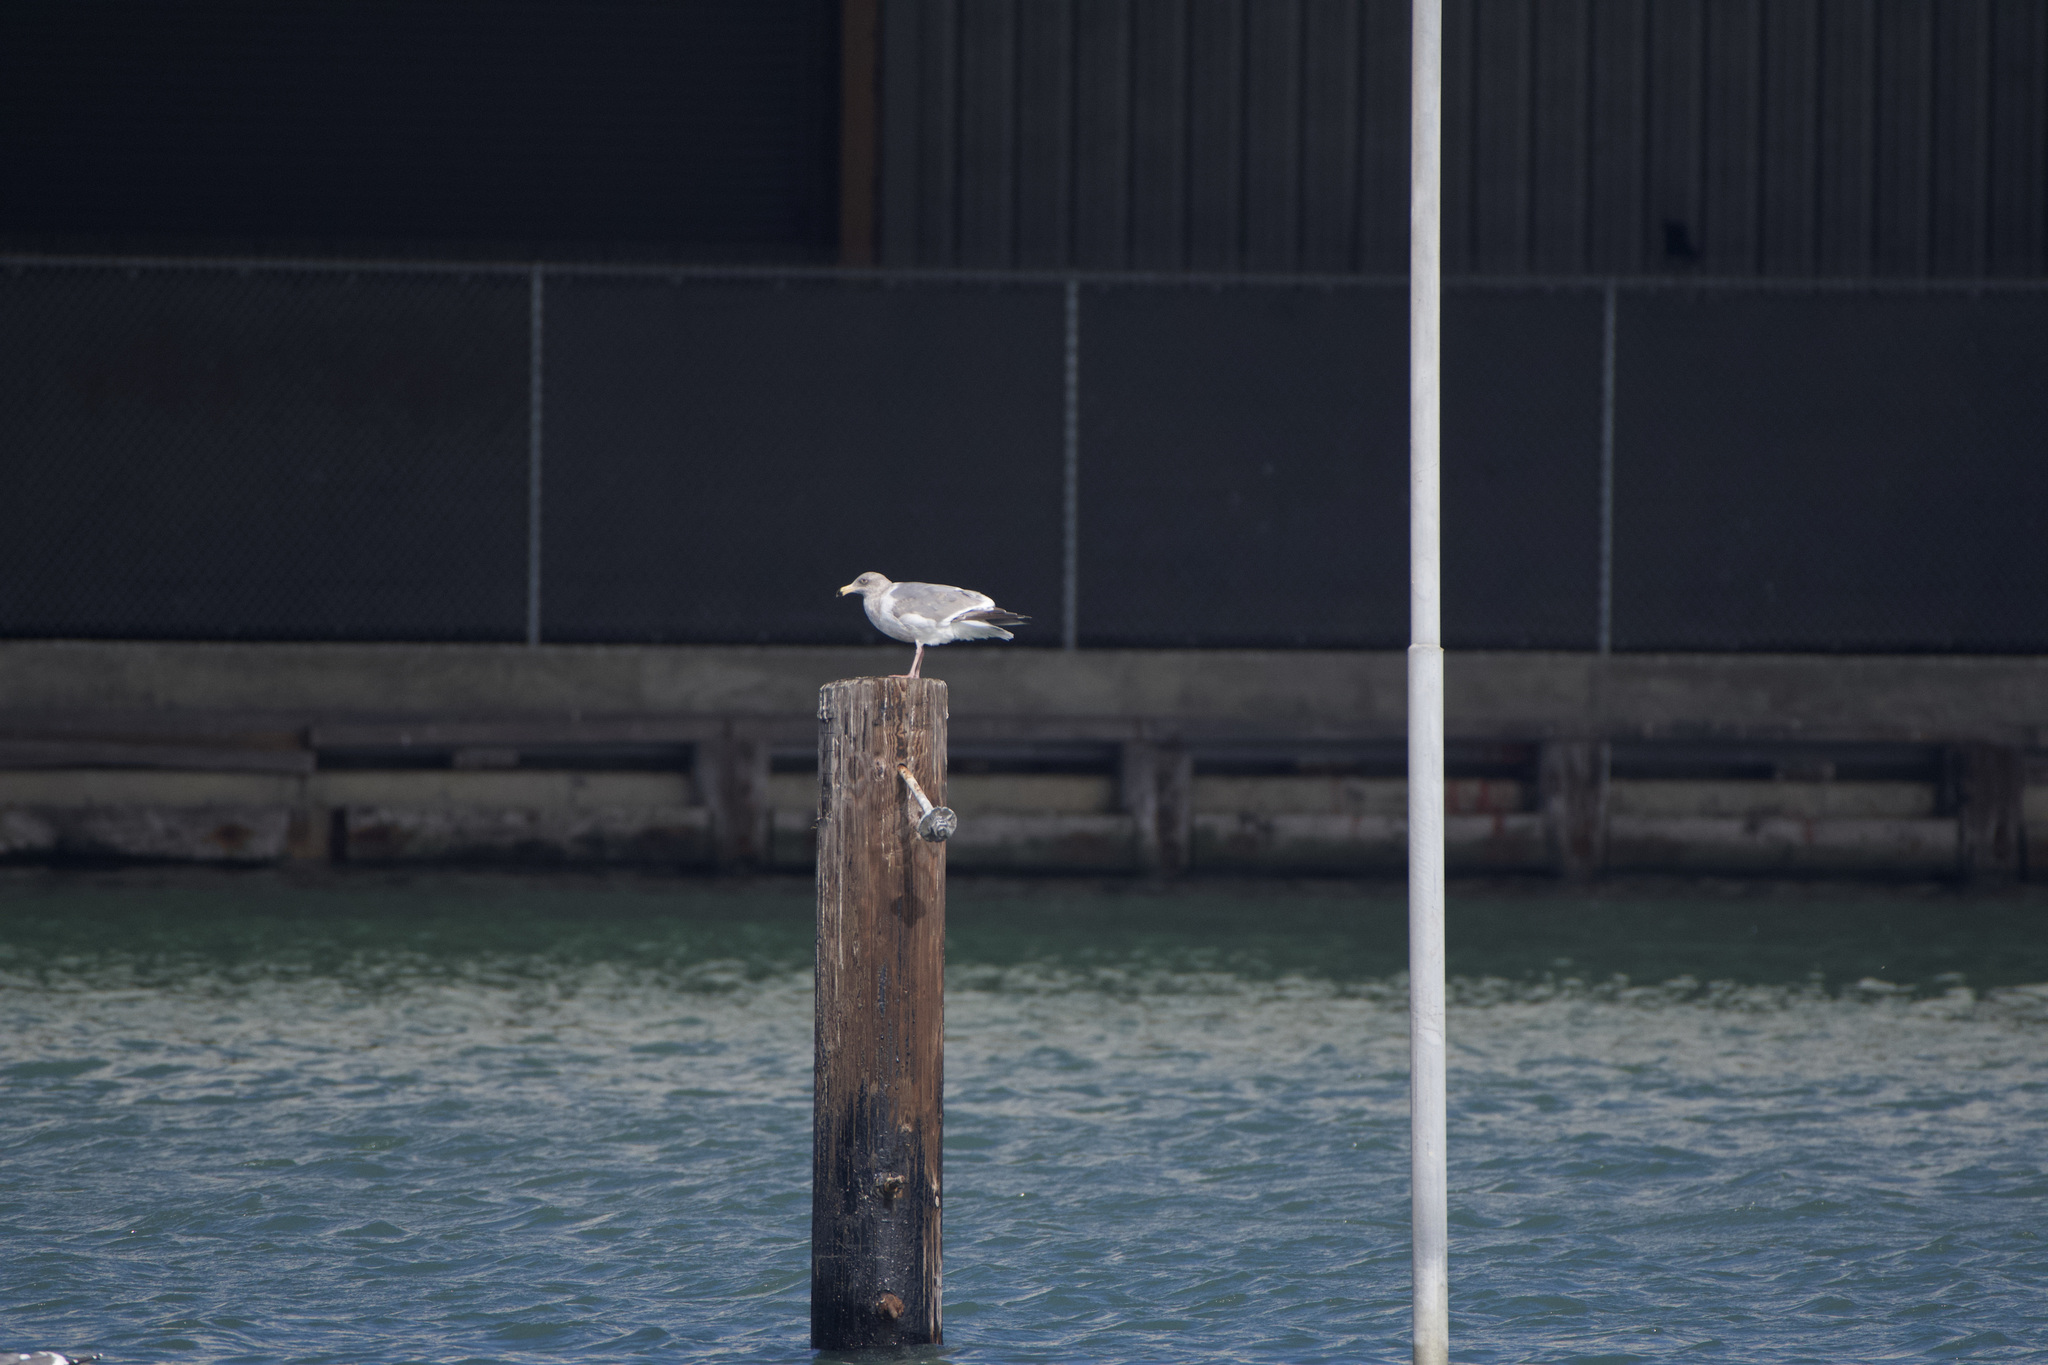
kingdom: Animalia
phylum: Chordata
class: Aves
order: Charadriiformes
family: Laridae
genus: Larus
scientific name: Larus
